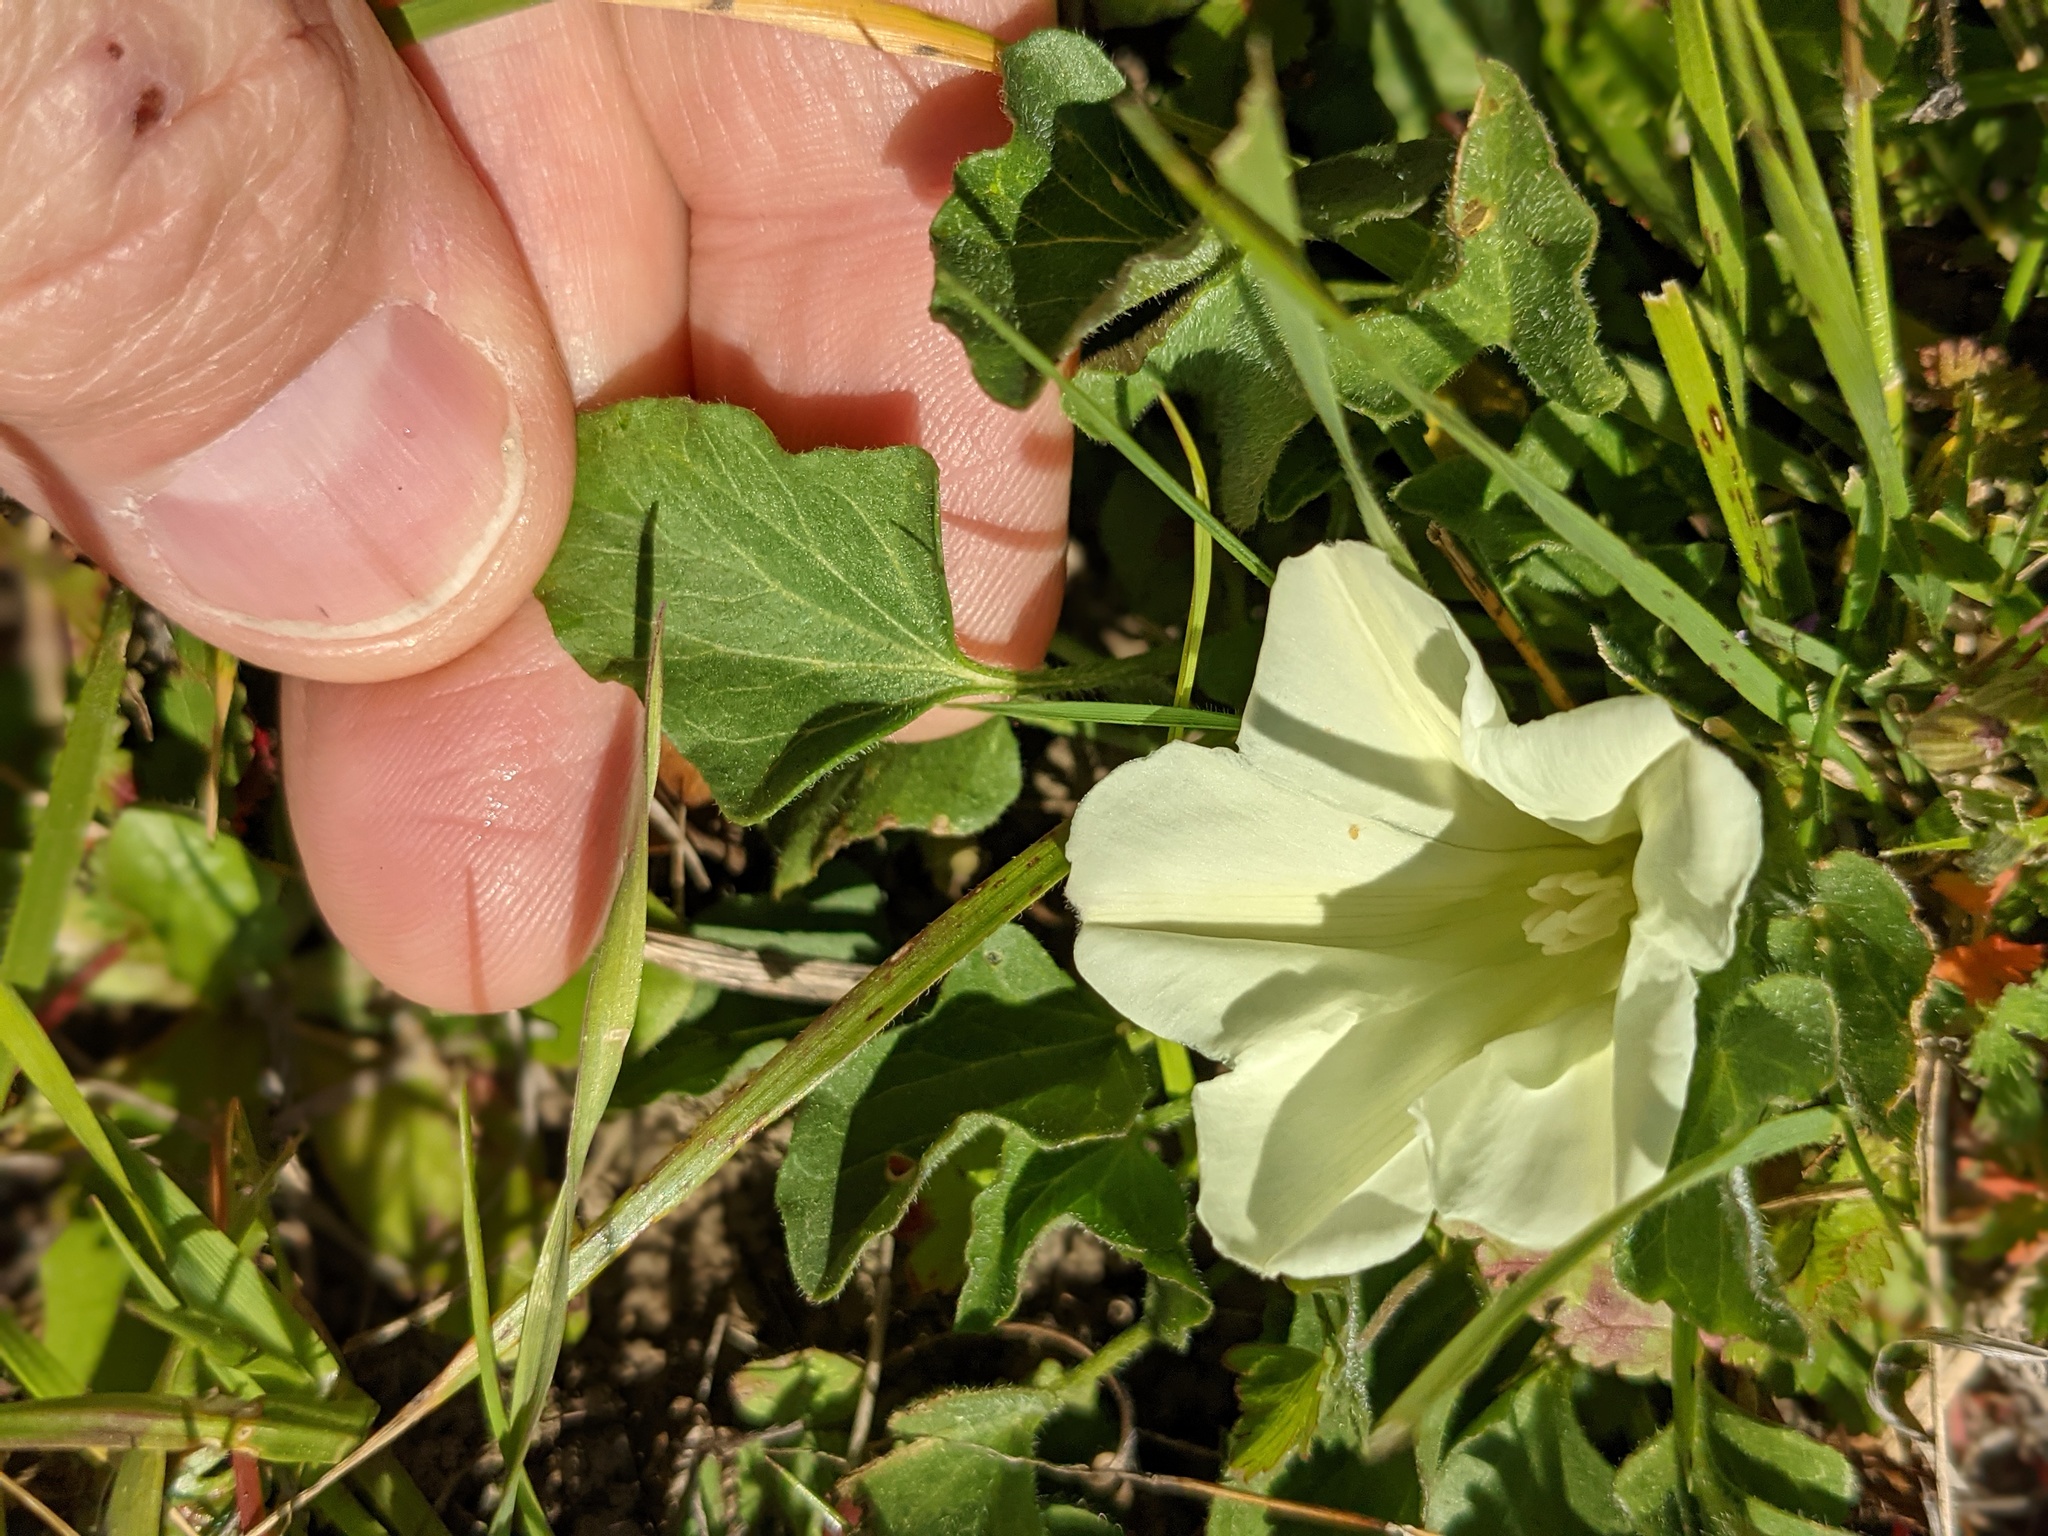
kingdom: Plantae
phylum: Tracheophyta
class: Magnoliopsida
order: Solanales
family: Convolvulaceae
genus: Calystegia
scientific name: Calystegia subacaulis
